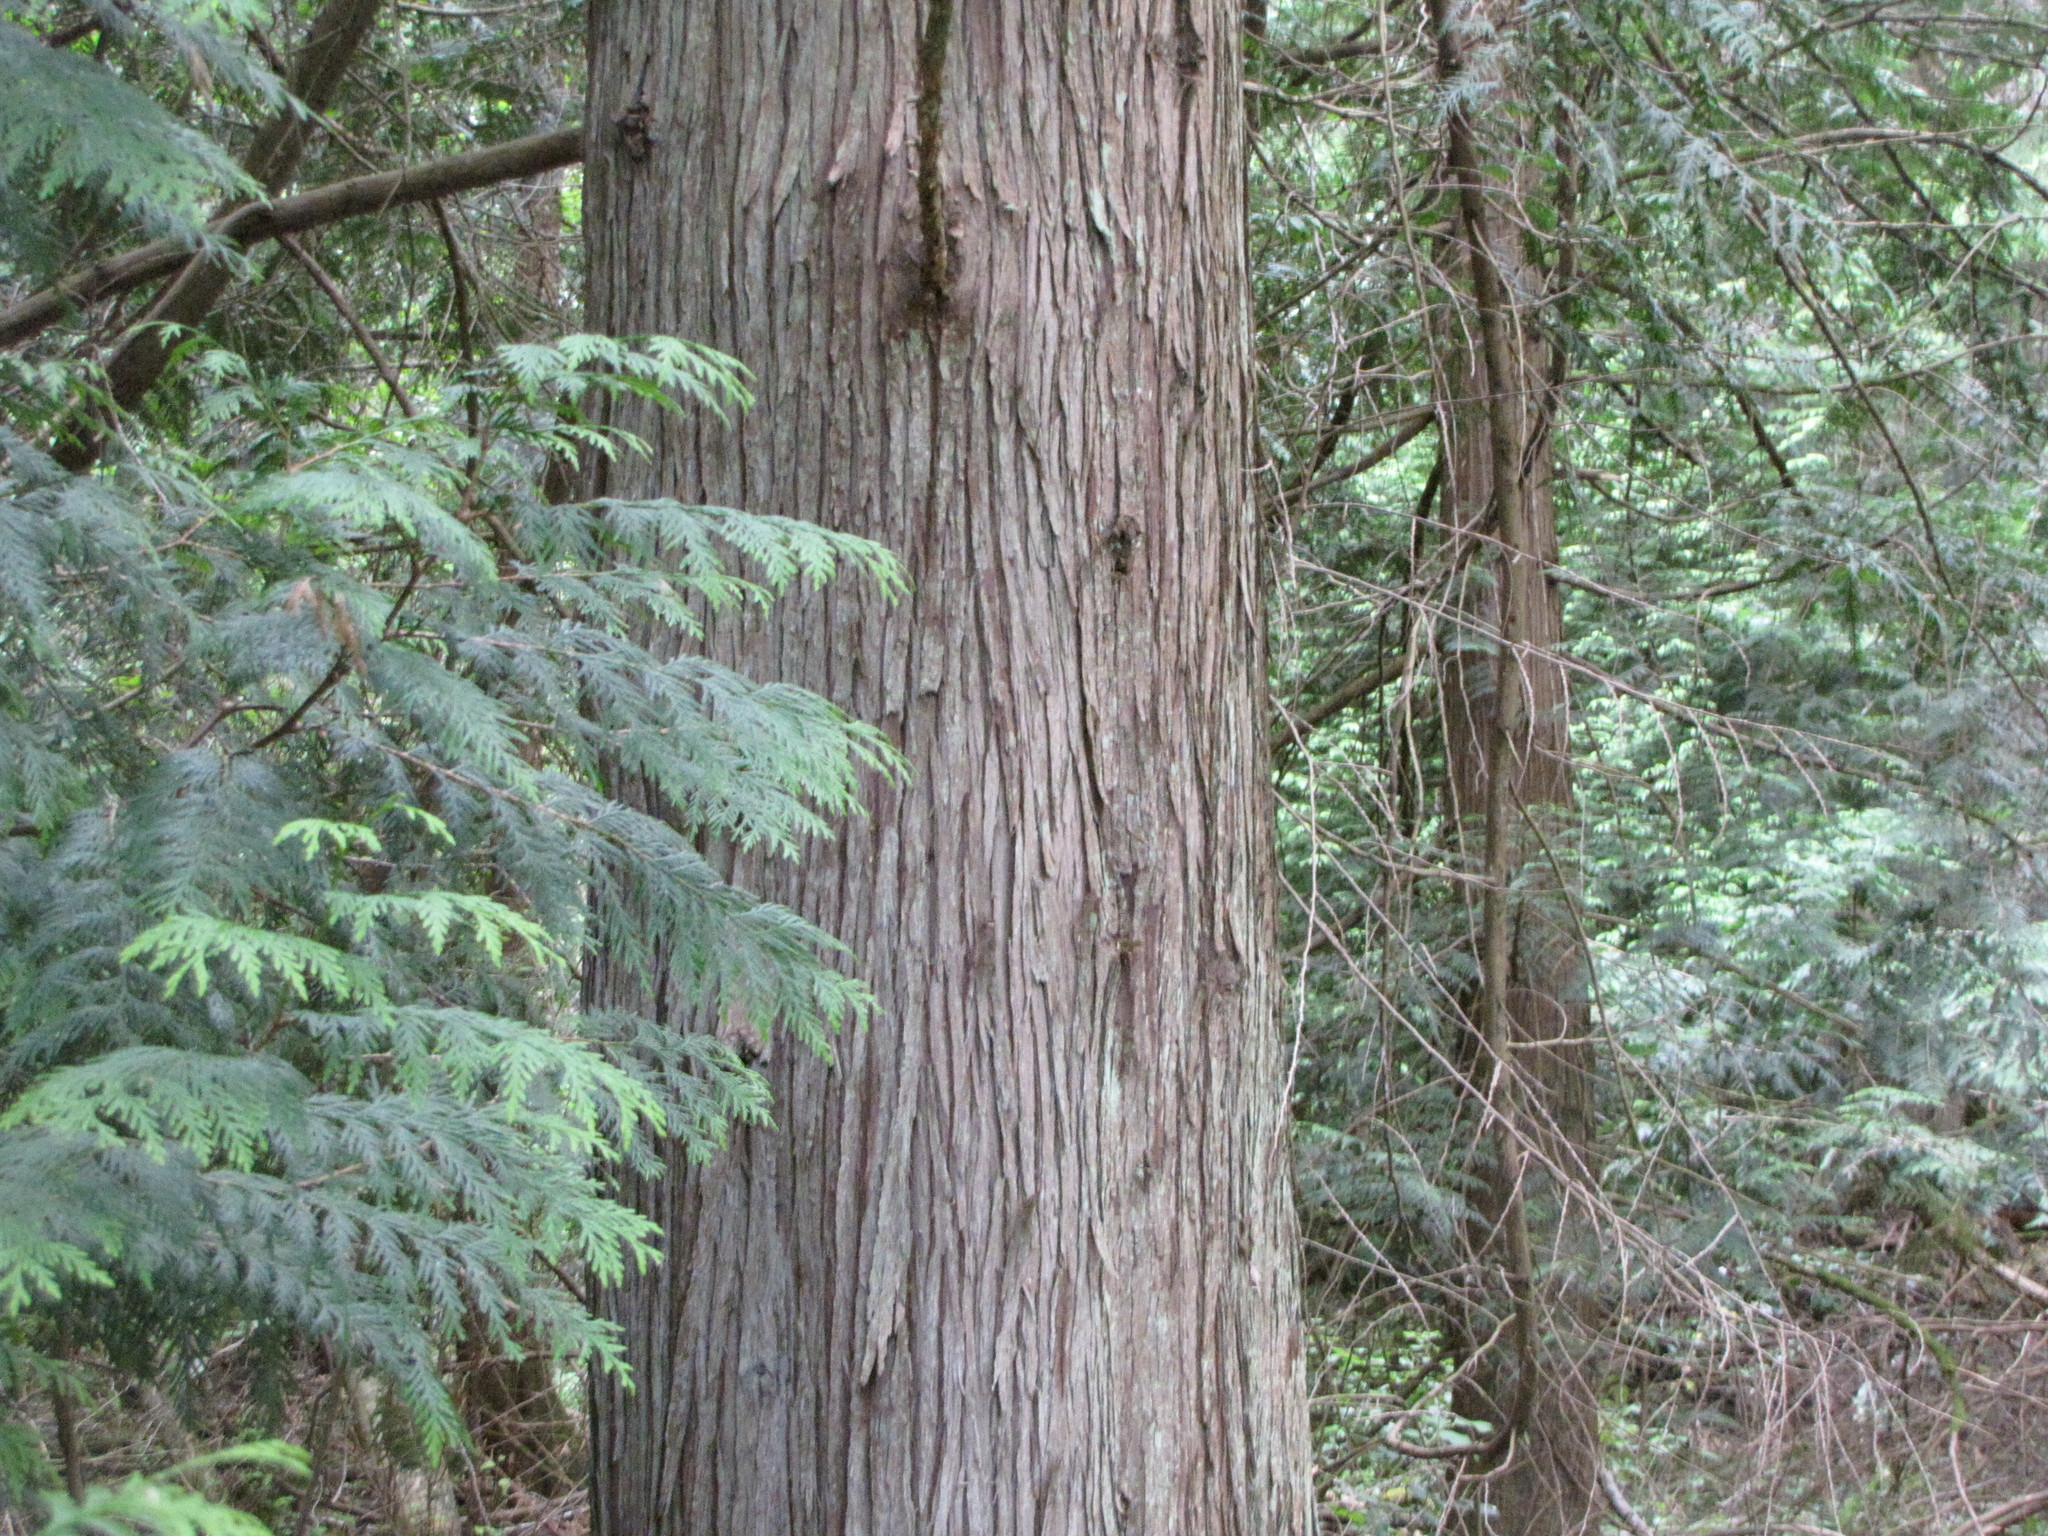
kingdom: Plantae
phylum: Tracheophyta
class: Pinopsida
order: Pinales
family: Cupressaceae
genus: Thuja
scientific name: Thuja plicata
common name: Western red-cedar
